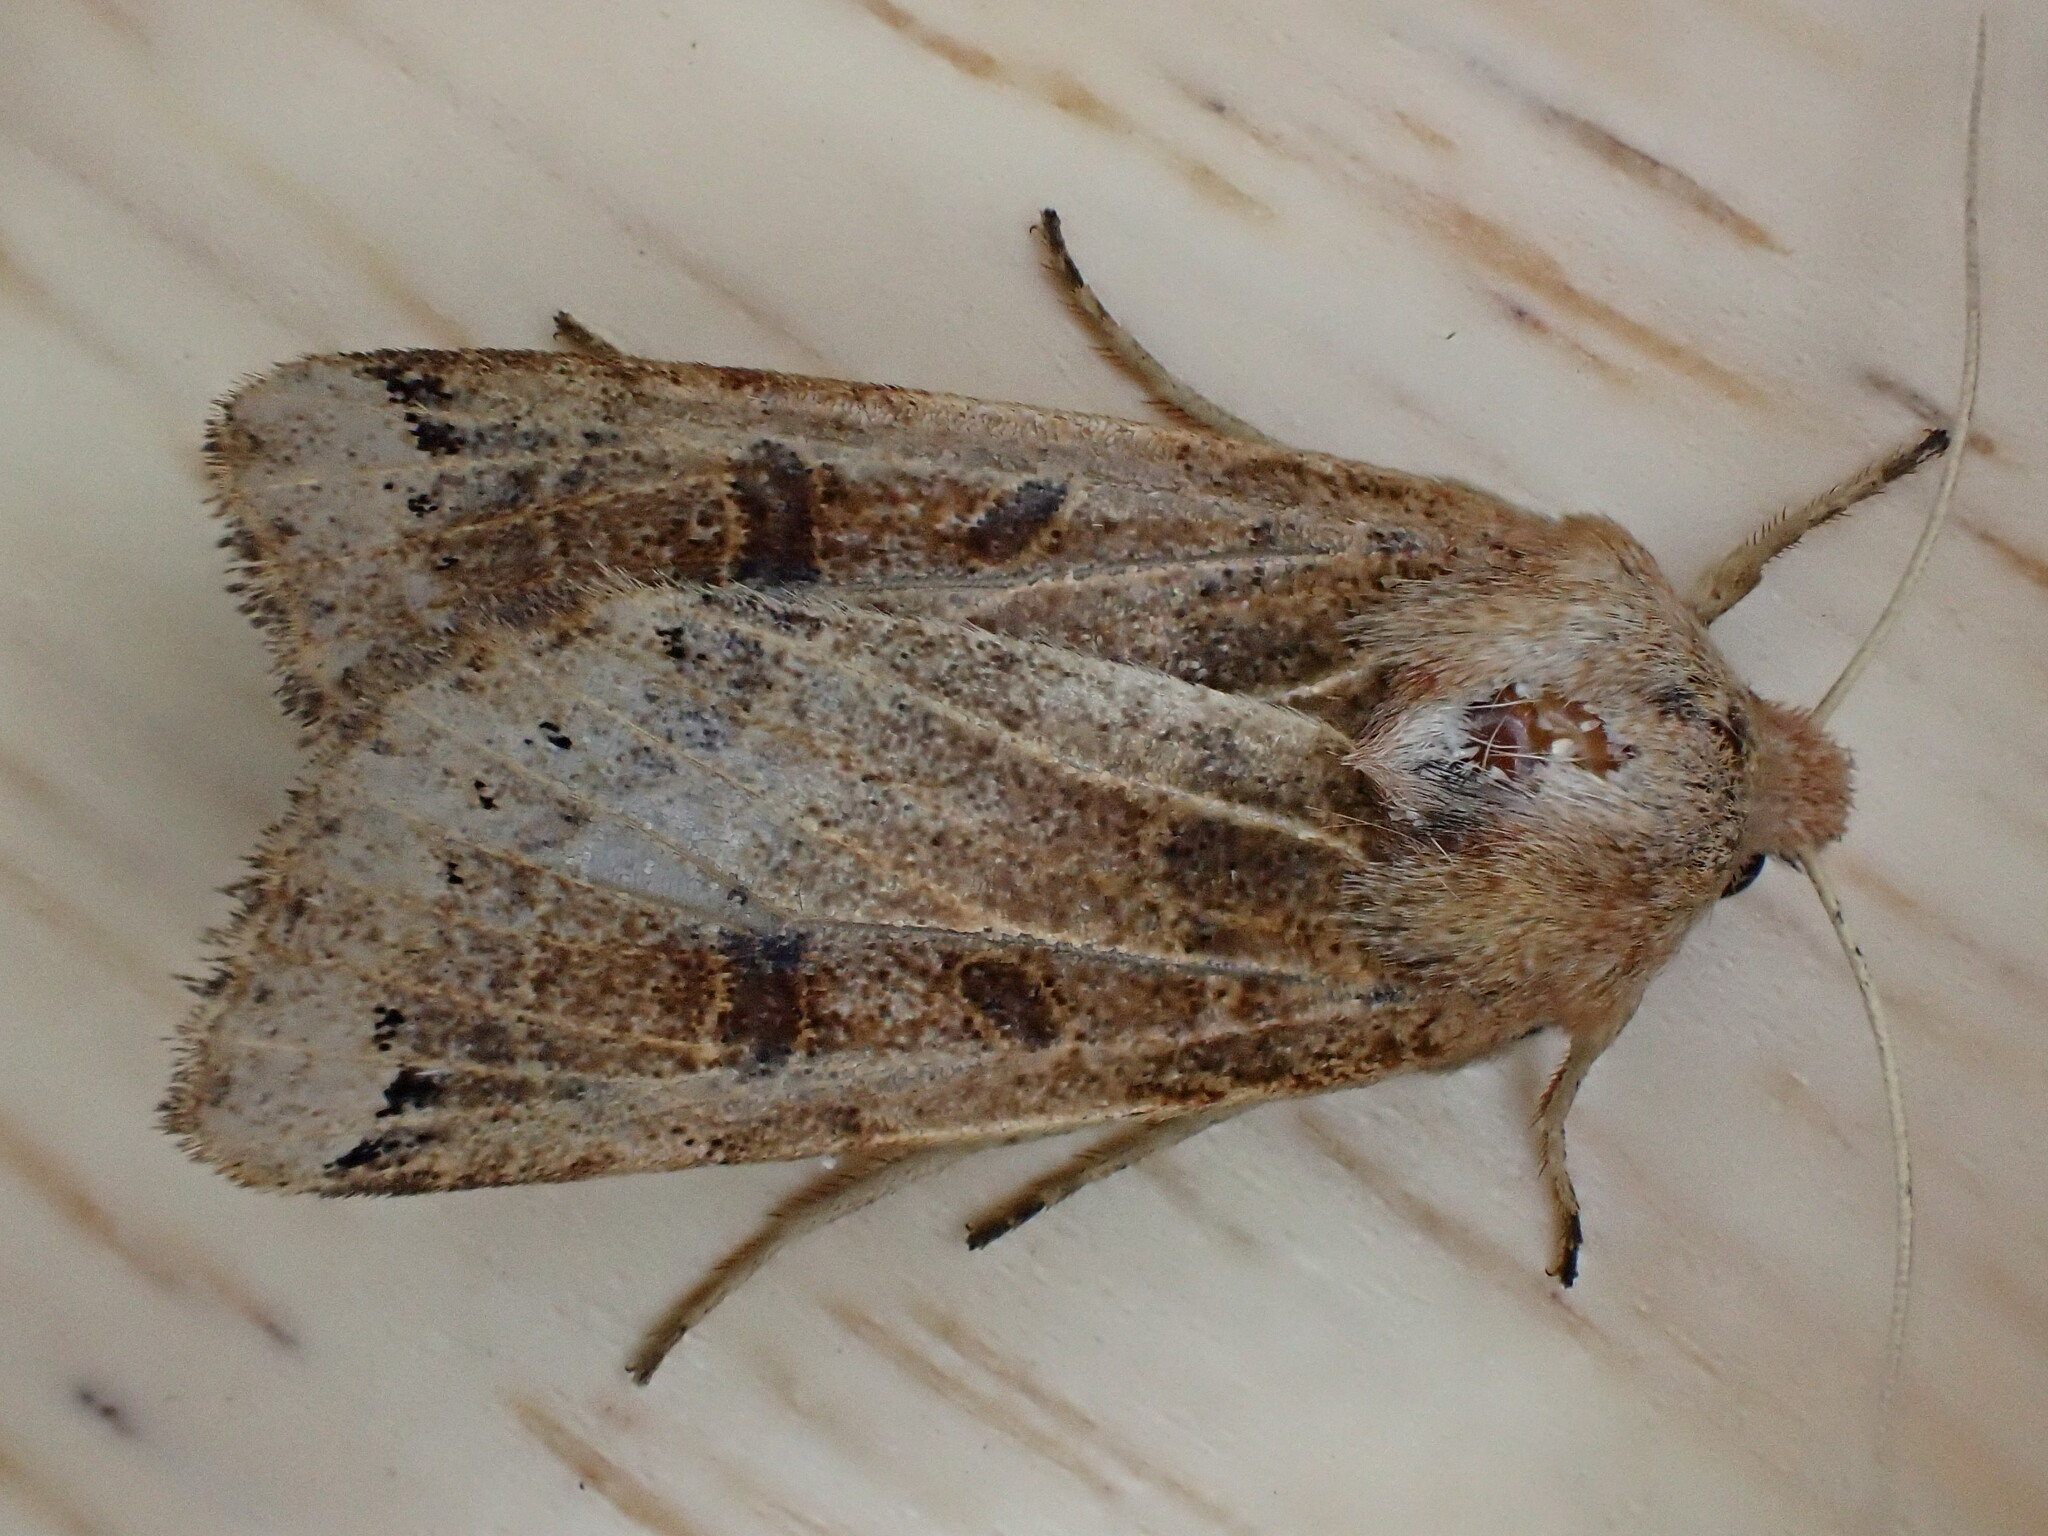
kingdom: Animalia
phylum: Arthropoda
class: Insecta
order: Lepidoptera
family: Noctuidae
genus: Agrochola
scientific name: Agrochola lunosa
